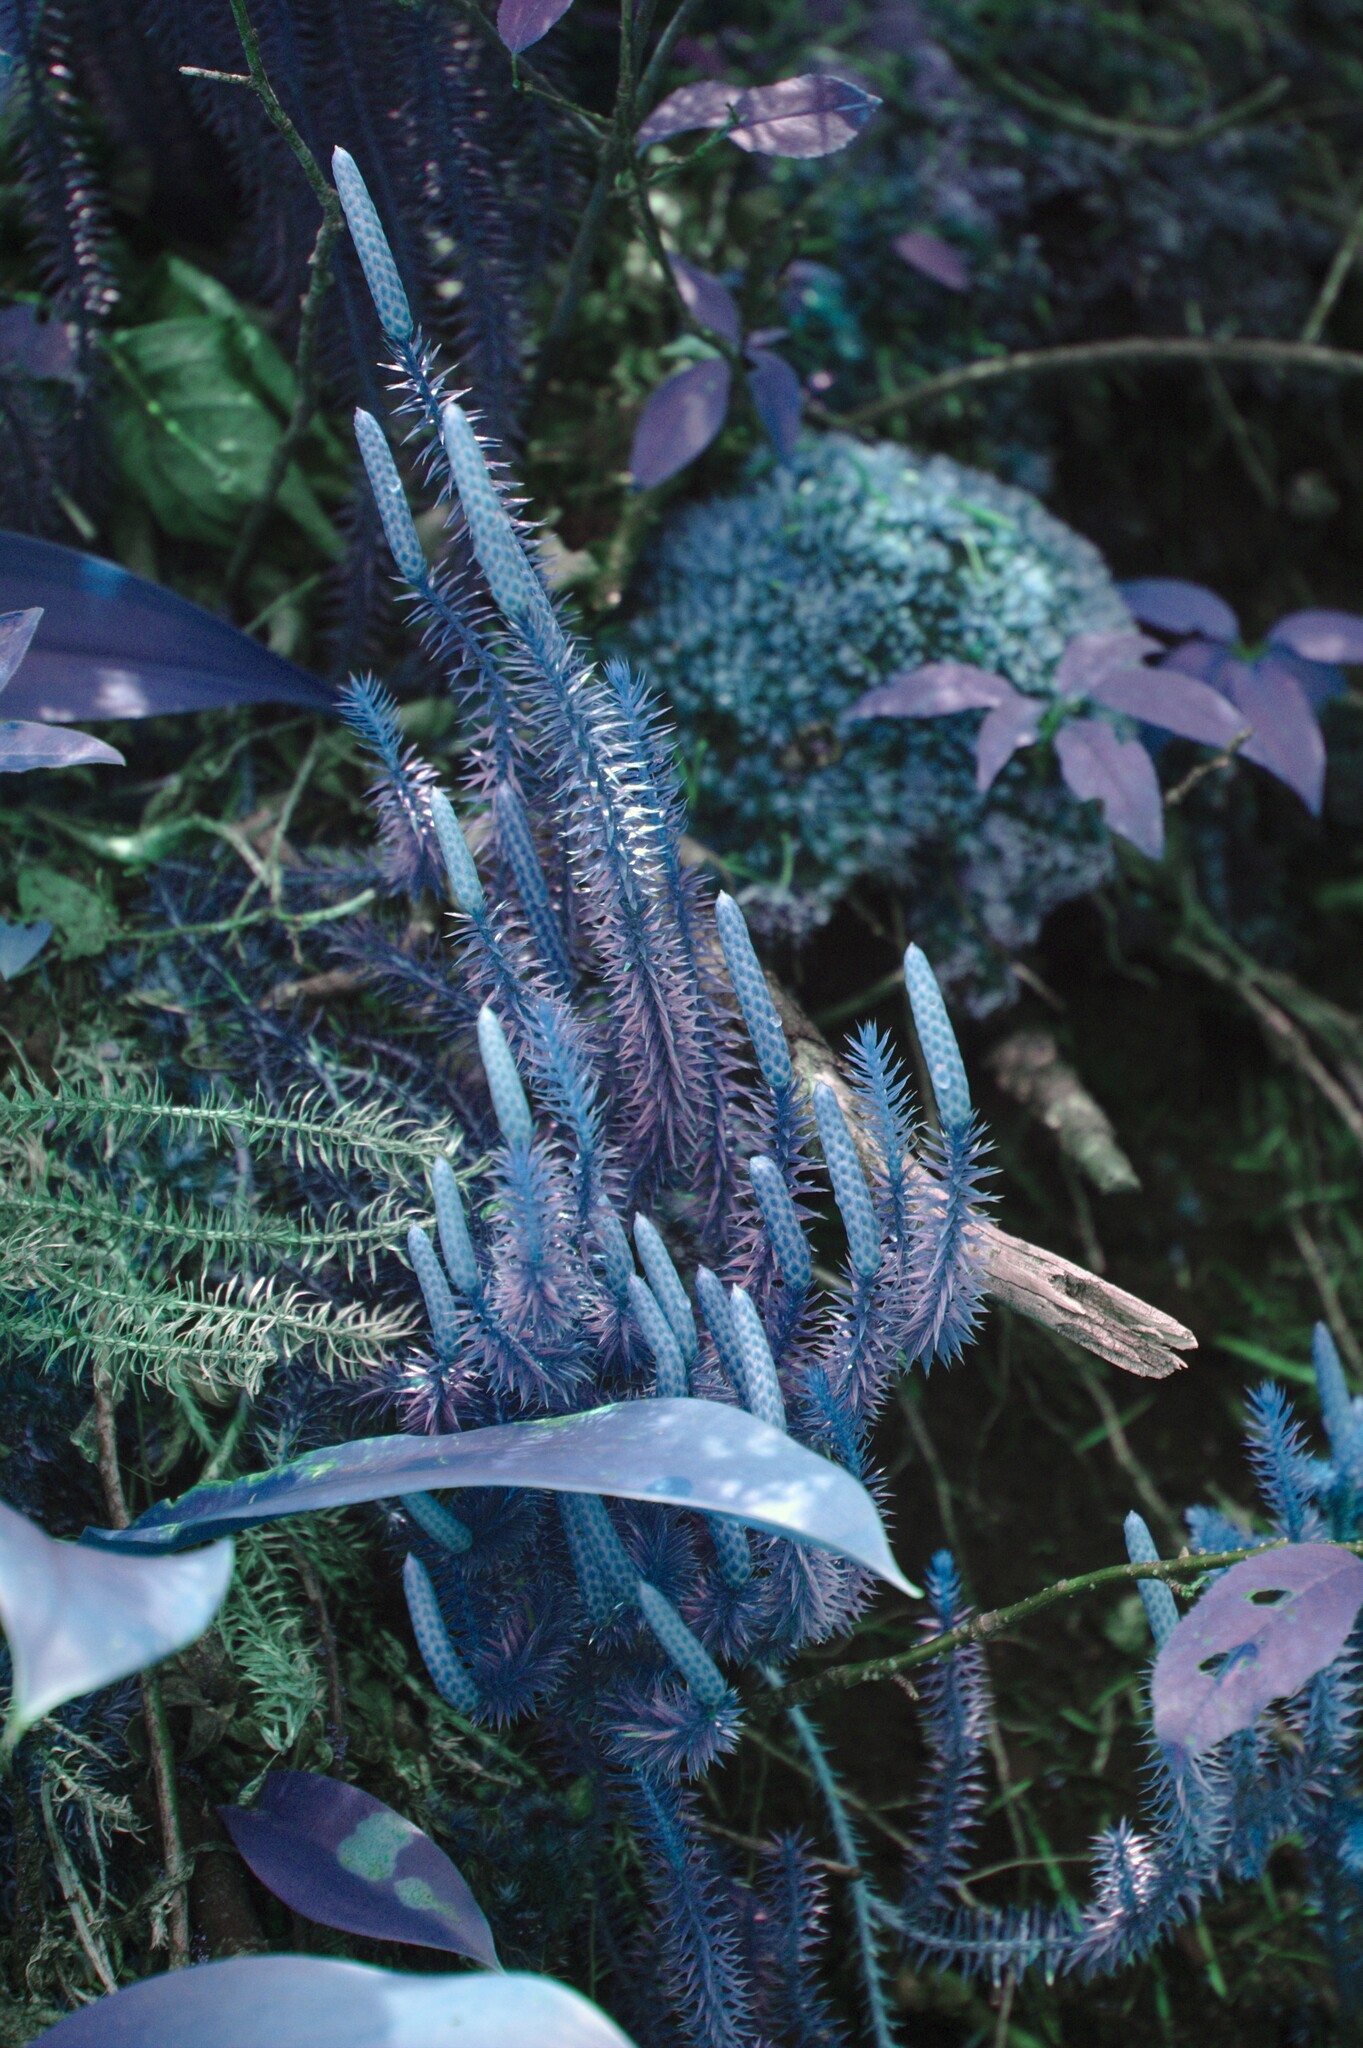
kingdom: Plantae
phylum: Tracheophyta
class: Lycopodiopsida
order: Lycopodiales
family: Lycopodiaceae
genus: Spinulum
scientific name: Spinulum annotinum
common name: Interrupted club-moss
